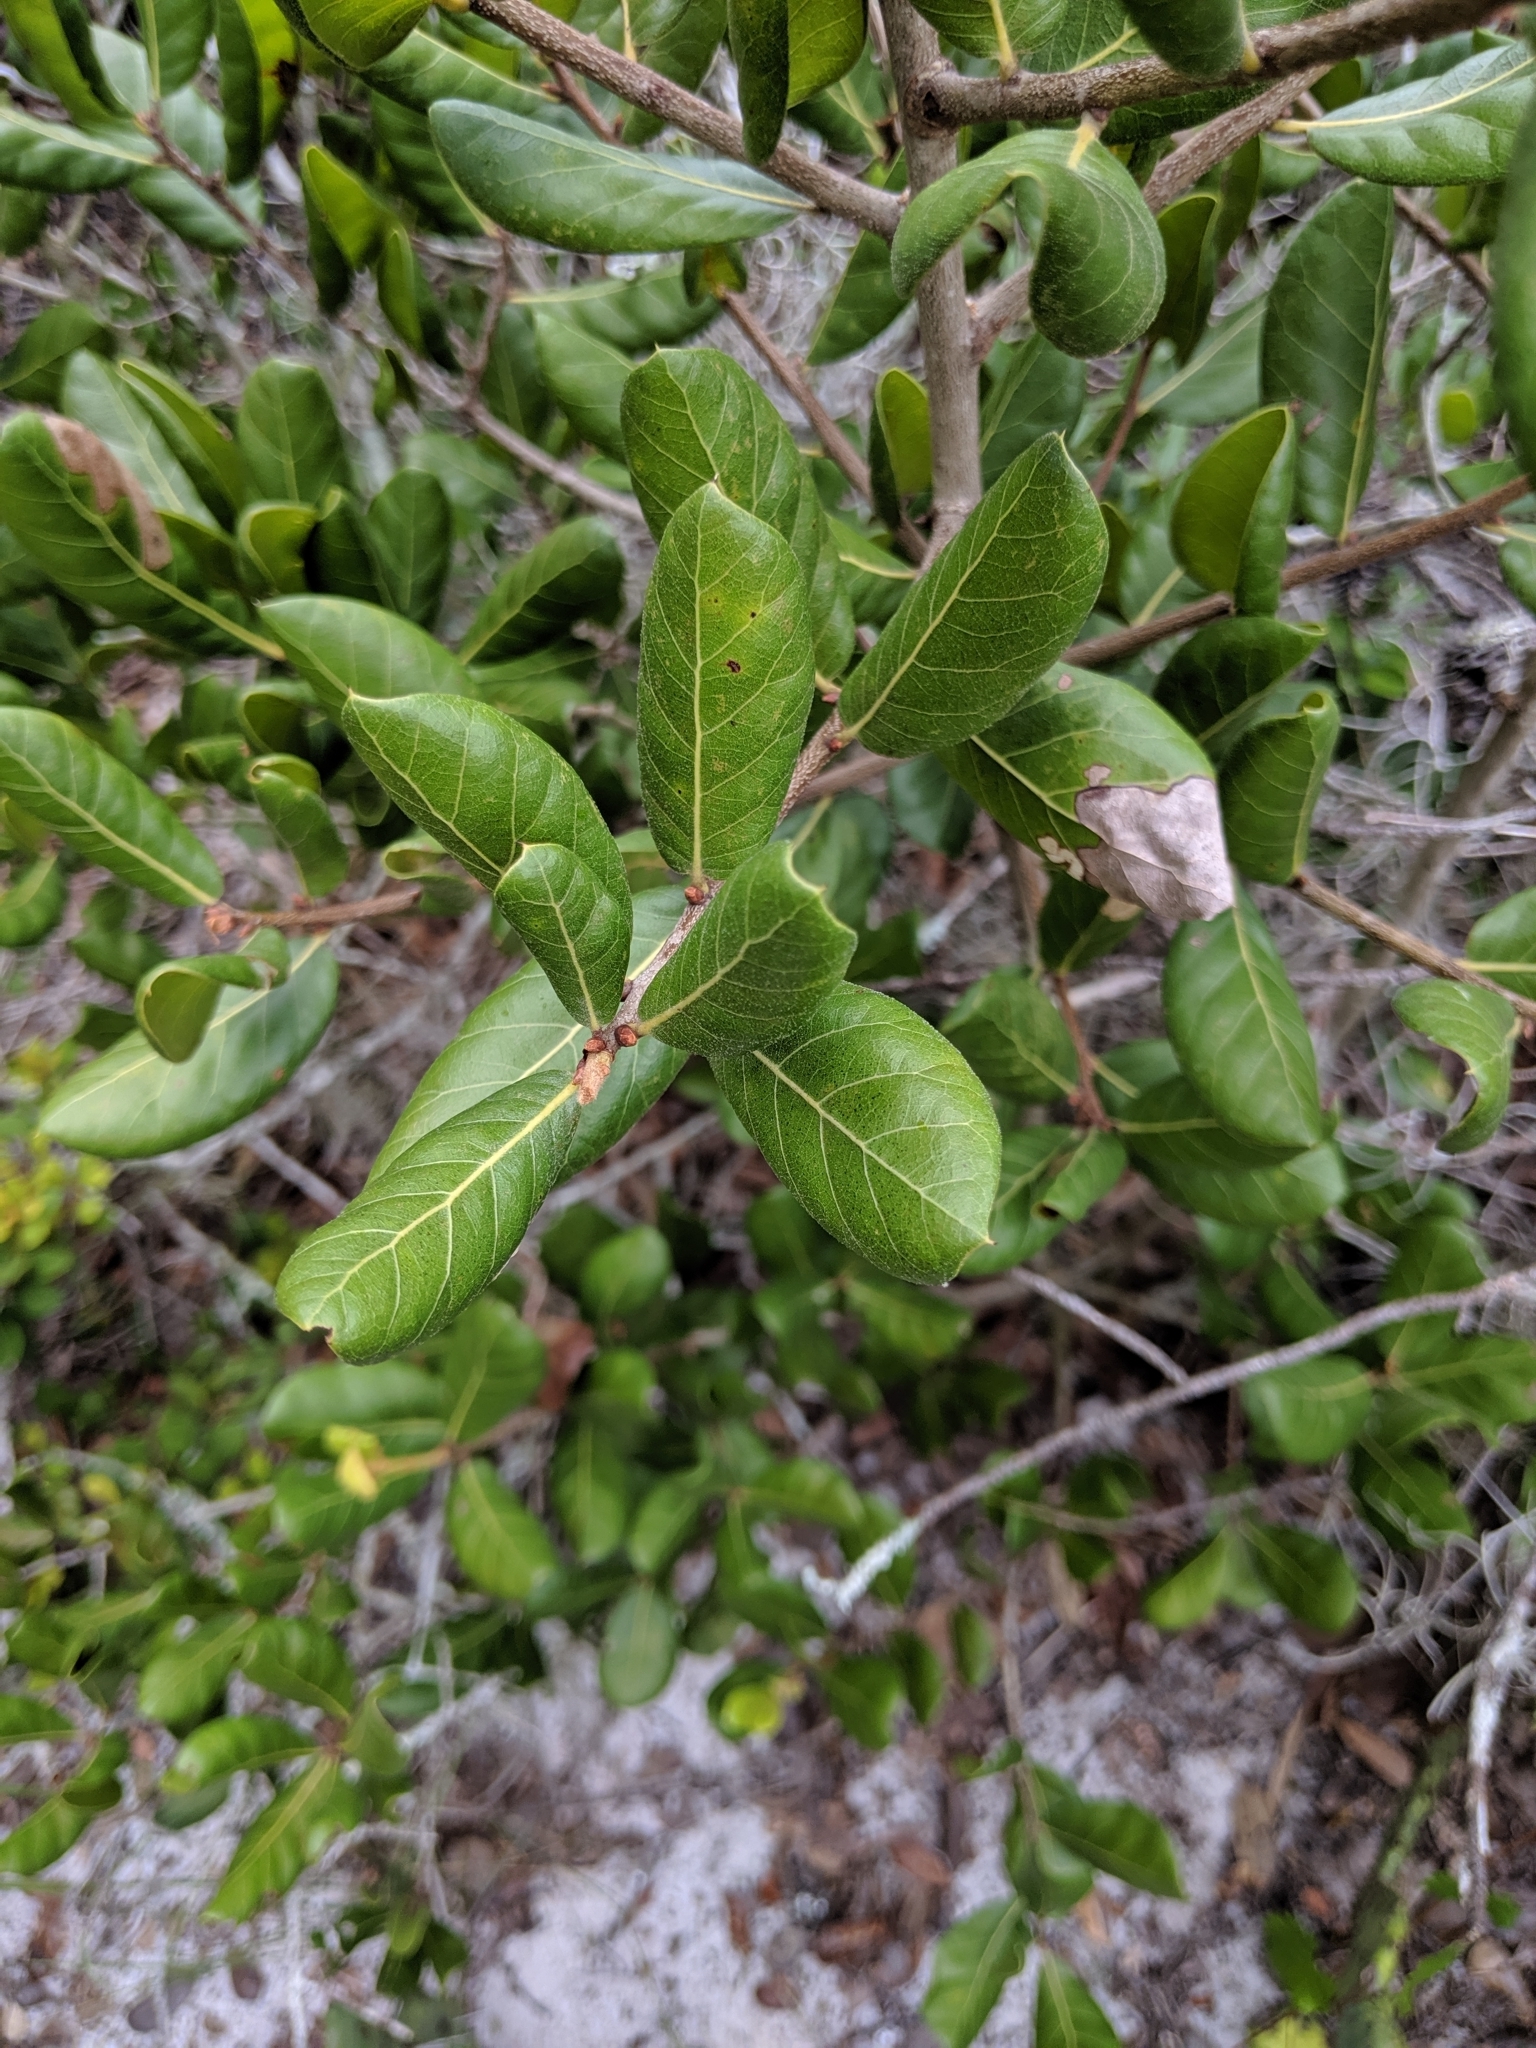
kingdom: Plantae
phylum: Tracheophyta
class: Magnoliopsida
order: Fagales
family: Fagaceae
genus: Quercus
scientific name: Quercus inopina
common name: Sandhill oak
